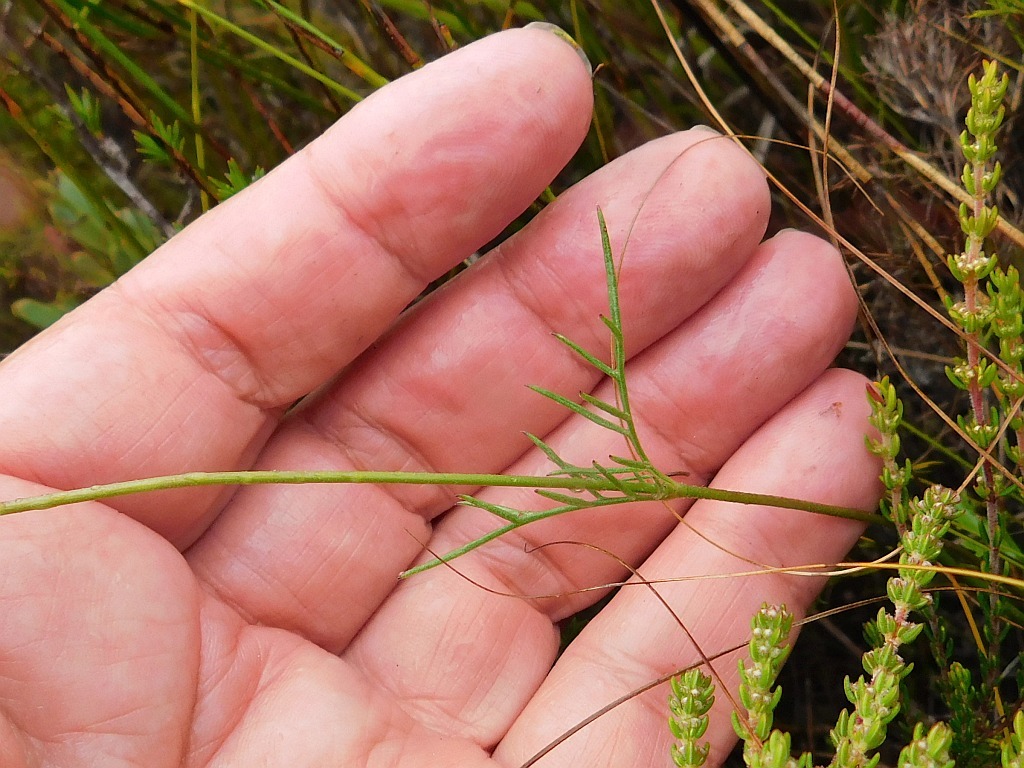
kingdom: Plantae
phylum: Tracheophyta
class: Magnoliopsida
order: Dipsacales
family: Caprifoliaceae
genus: Scabiosa
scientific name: Scabiosa columbaria
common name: Small scabious
